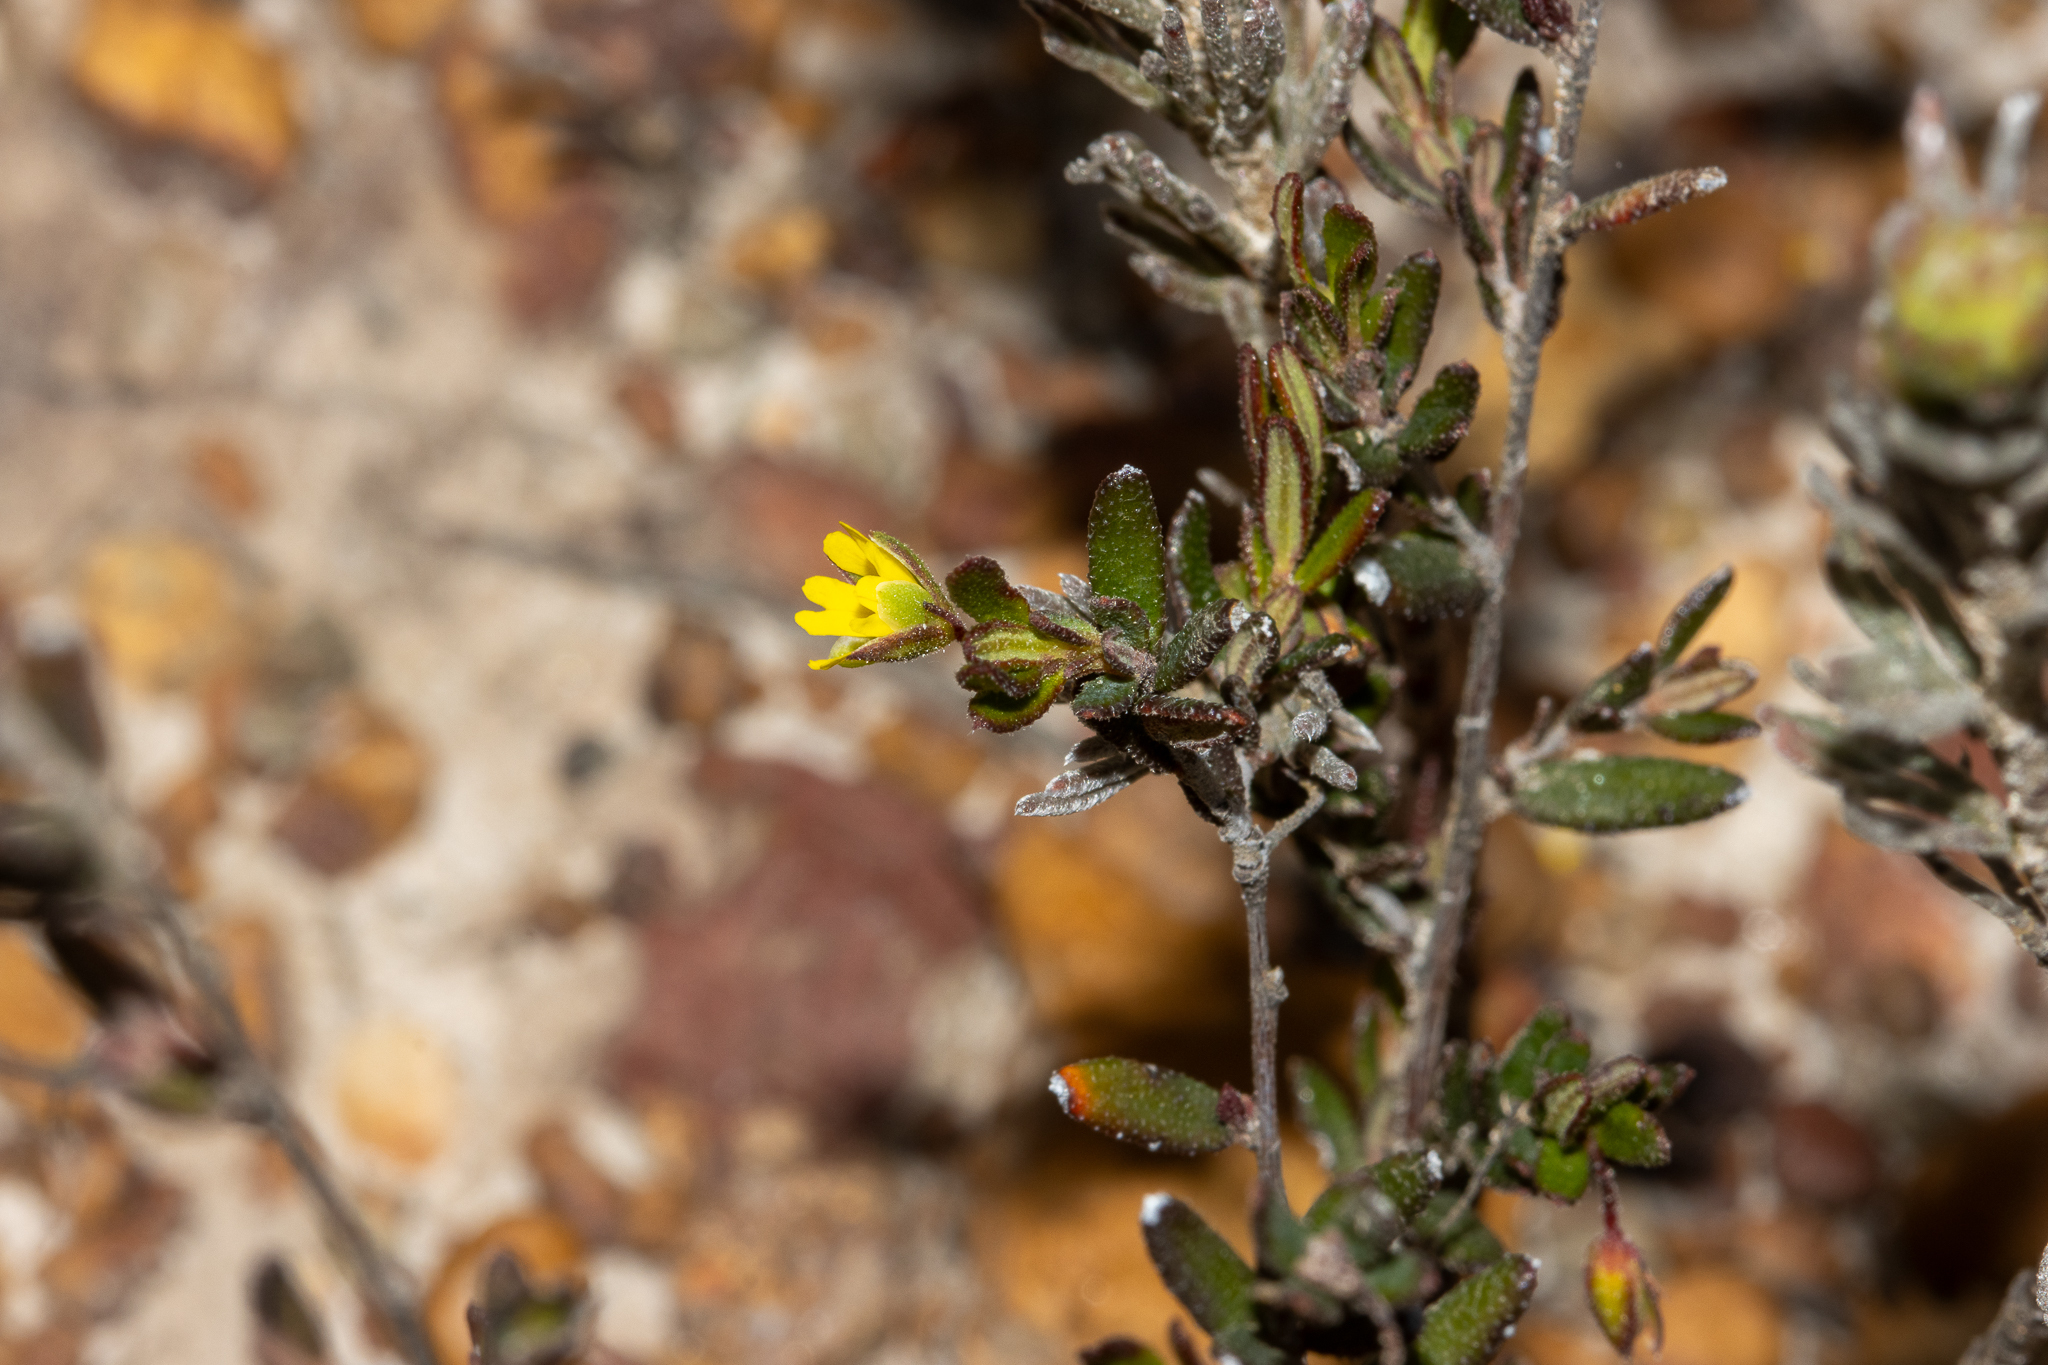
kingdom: Plantae
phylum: Tracheophyta
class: Magnoliopsida
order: Dilleniales
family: Dilleniaceae
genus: Hibbertia
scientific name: Hibbertia
